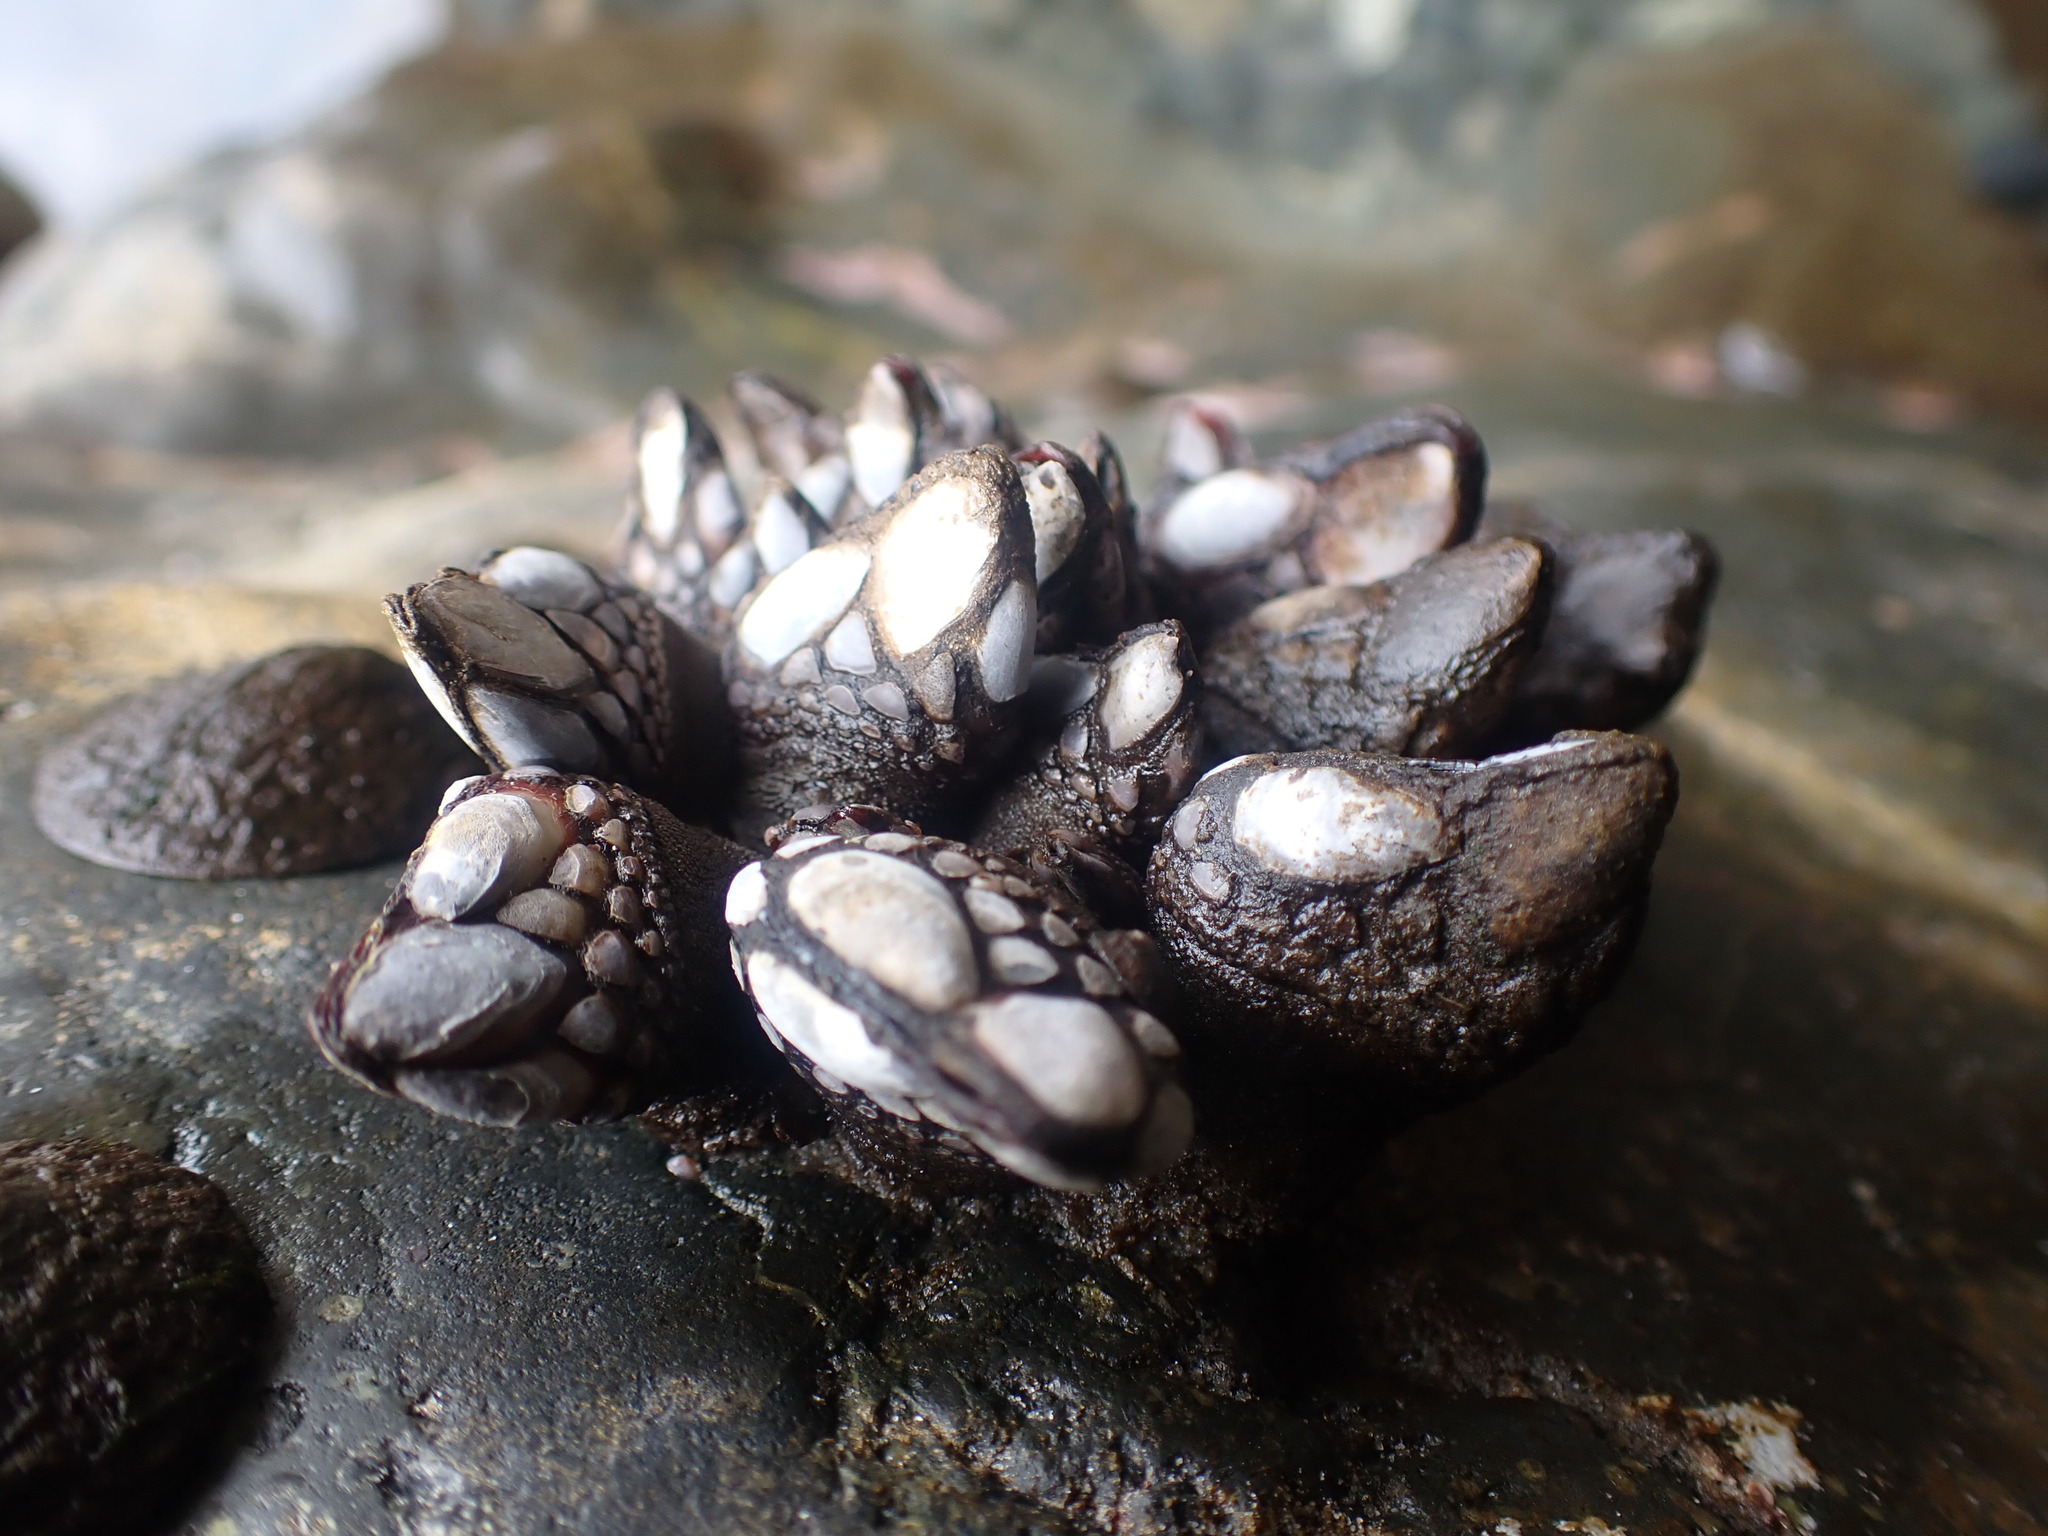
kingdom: Animalia
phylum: Arthropoda
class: Maxillopoda
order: Pedunculata
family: Pollicipedidae
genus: Pollicipes
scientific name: Pollicipes polymerus
